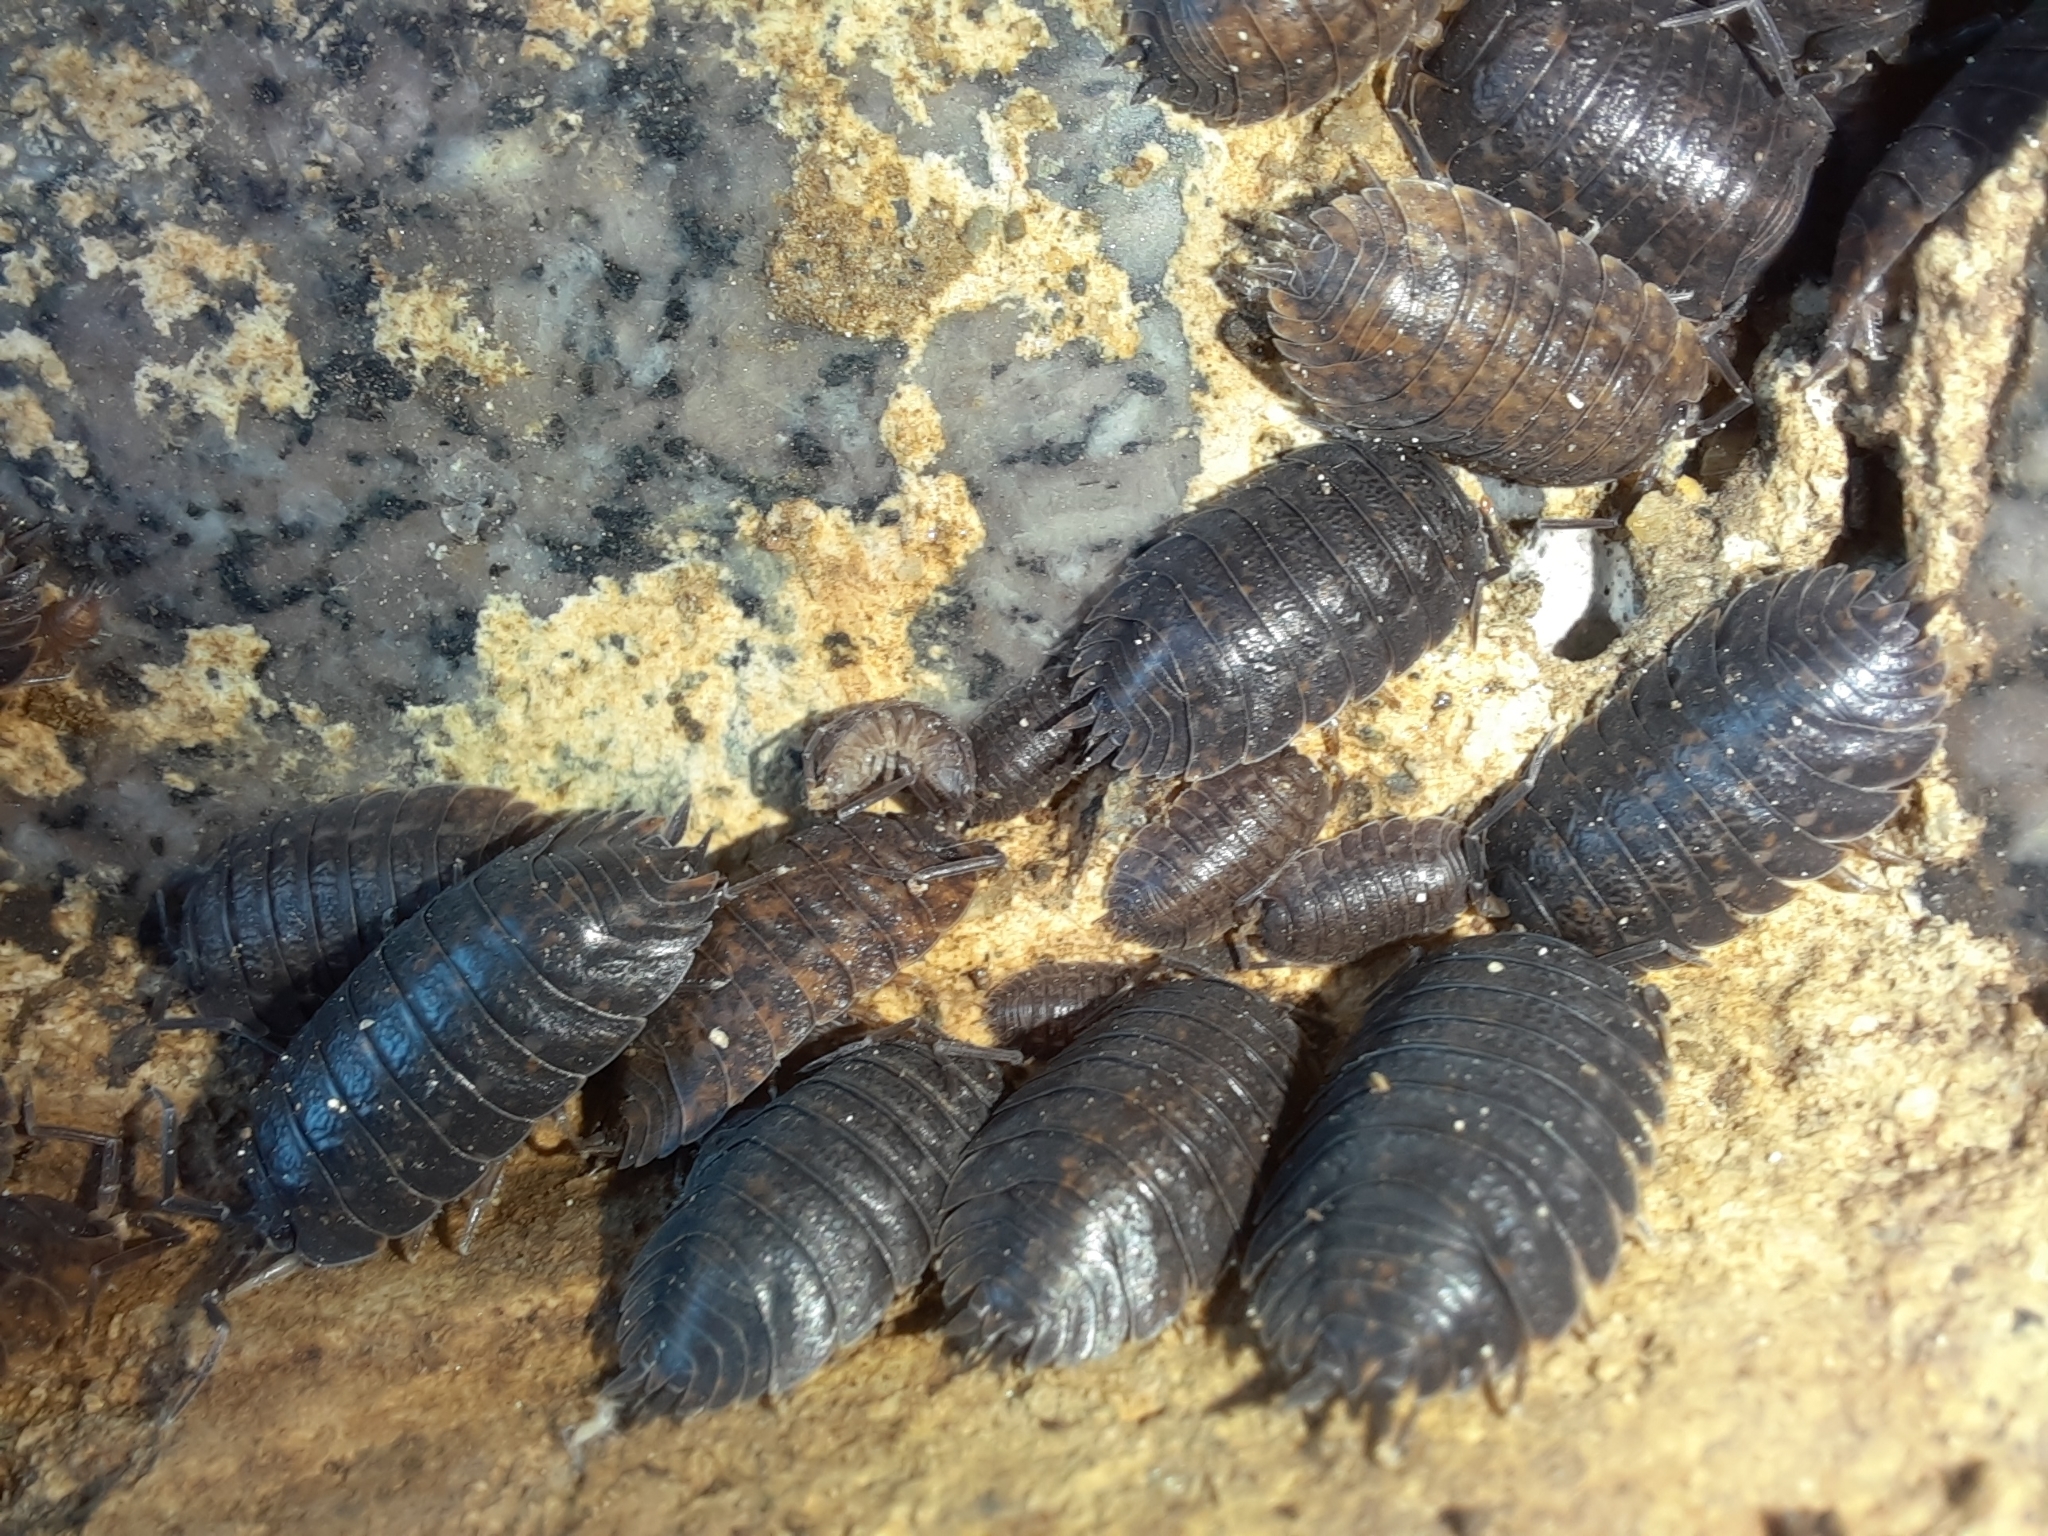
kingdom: Animalia
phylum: Arthropoda
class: Malacostraca
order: Isopoda
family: Trachelipodidae
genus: Trachelipus
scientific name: Trachelipus rathkii
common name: Isopod
